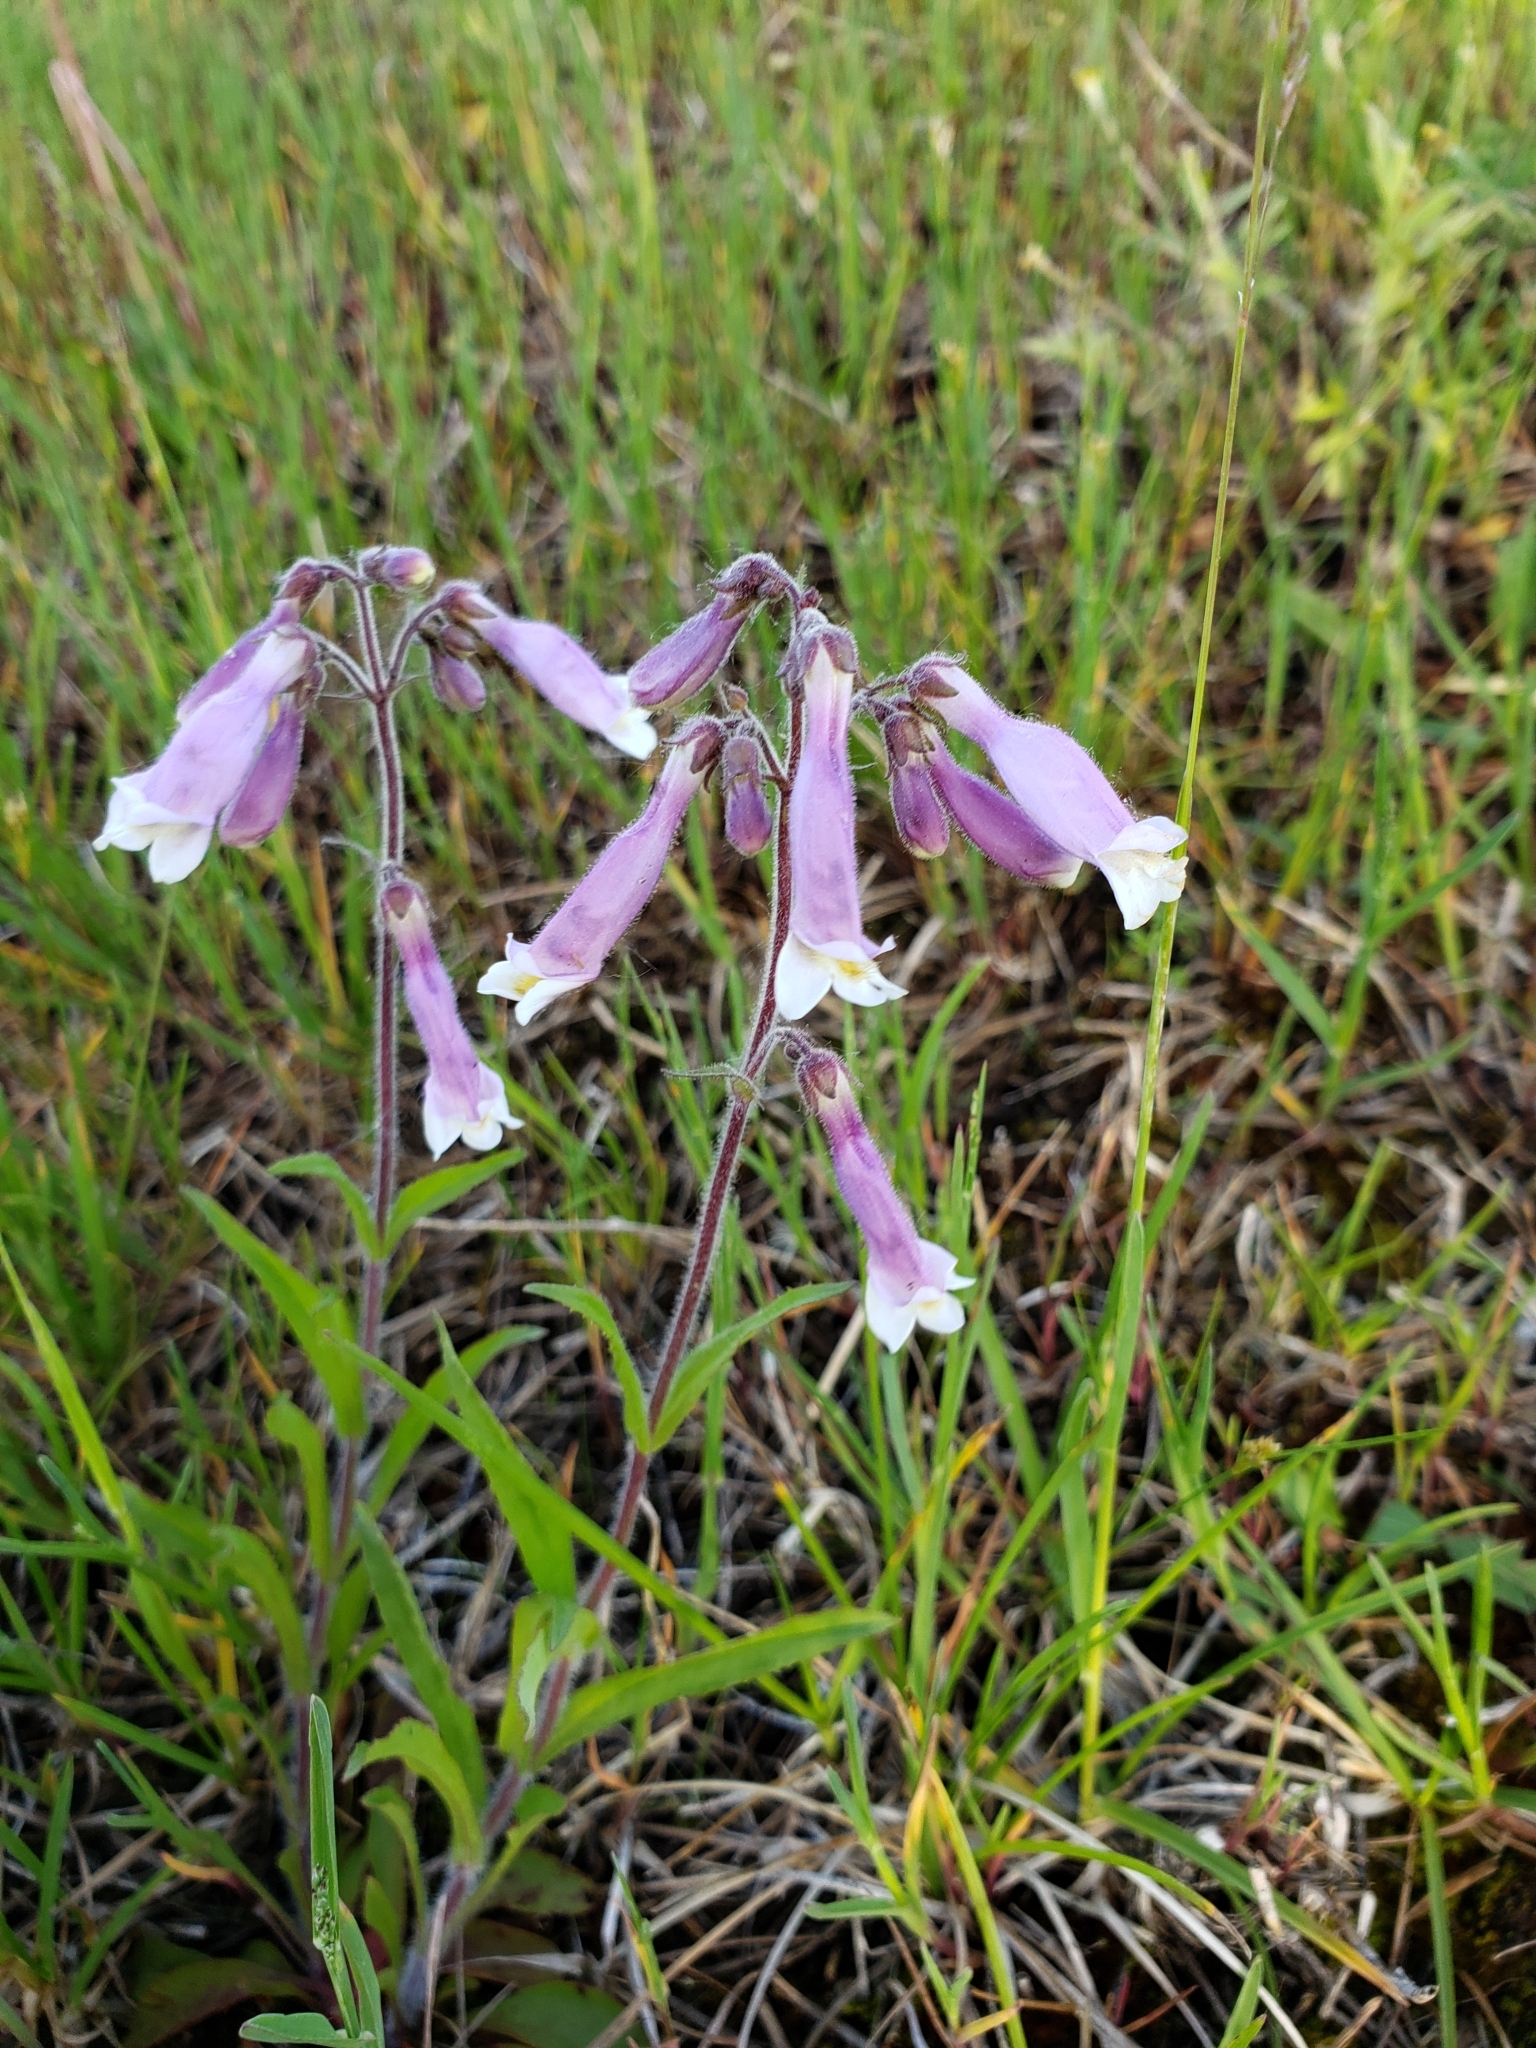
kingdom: Plantae
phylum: Tracheophyta
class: Magnoliopsida
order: Lamiales
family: Plantaginaceae
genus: Penstemon
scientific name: Penstemon hirsutus
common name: Hairy beardtongue
